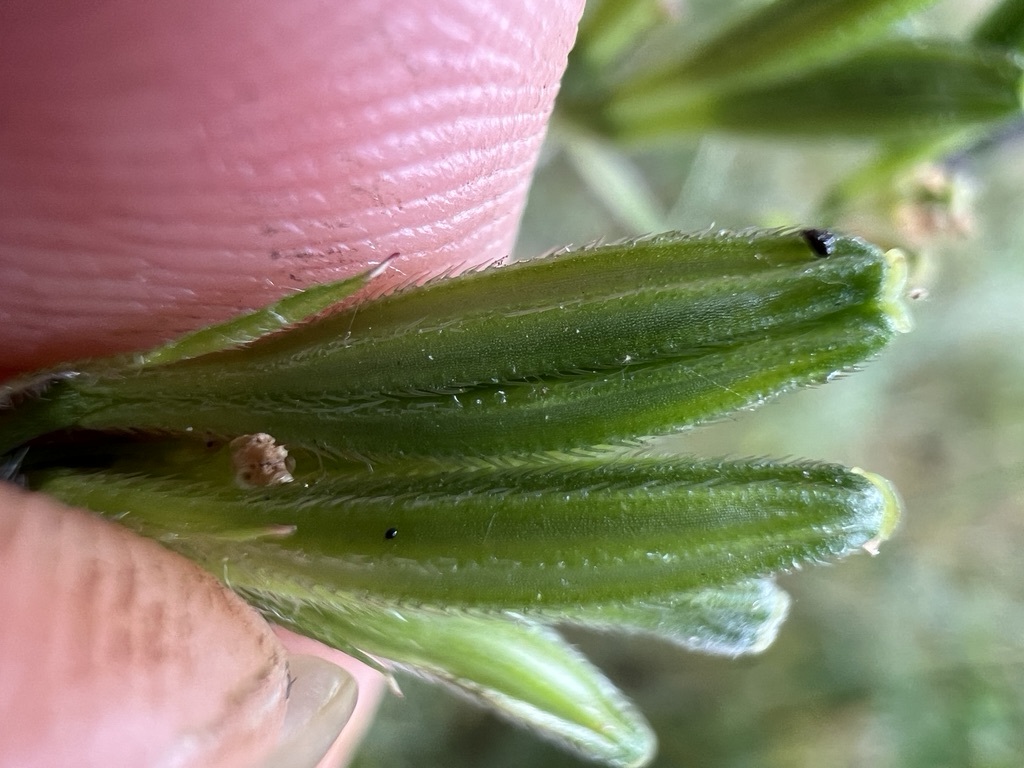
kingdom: Plantae
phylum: Tracheophyta
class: Magnoliopsida
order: Apiales
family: Apiaceae
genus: Osmorhiza
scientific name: Osmorhiza brachypoda
